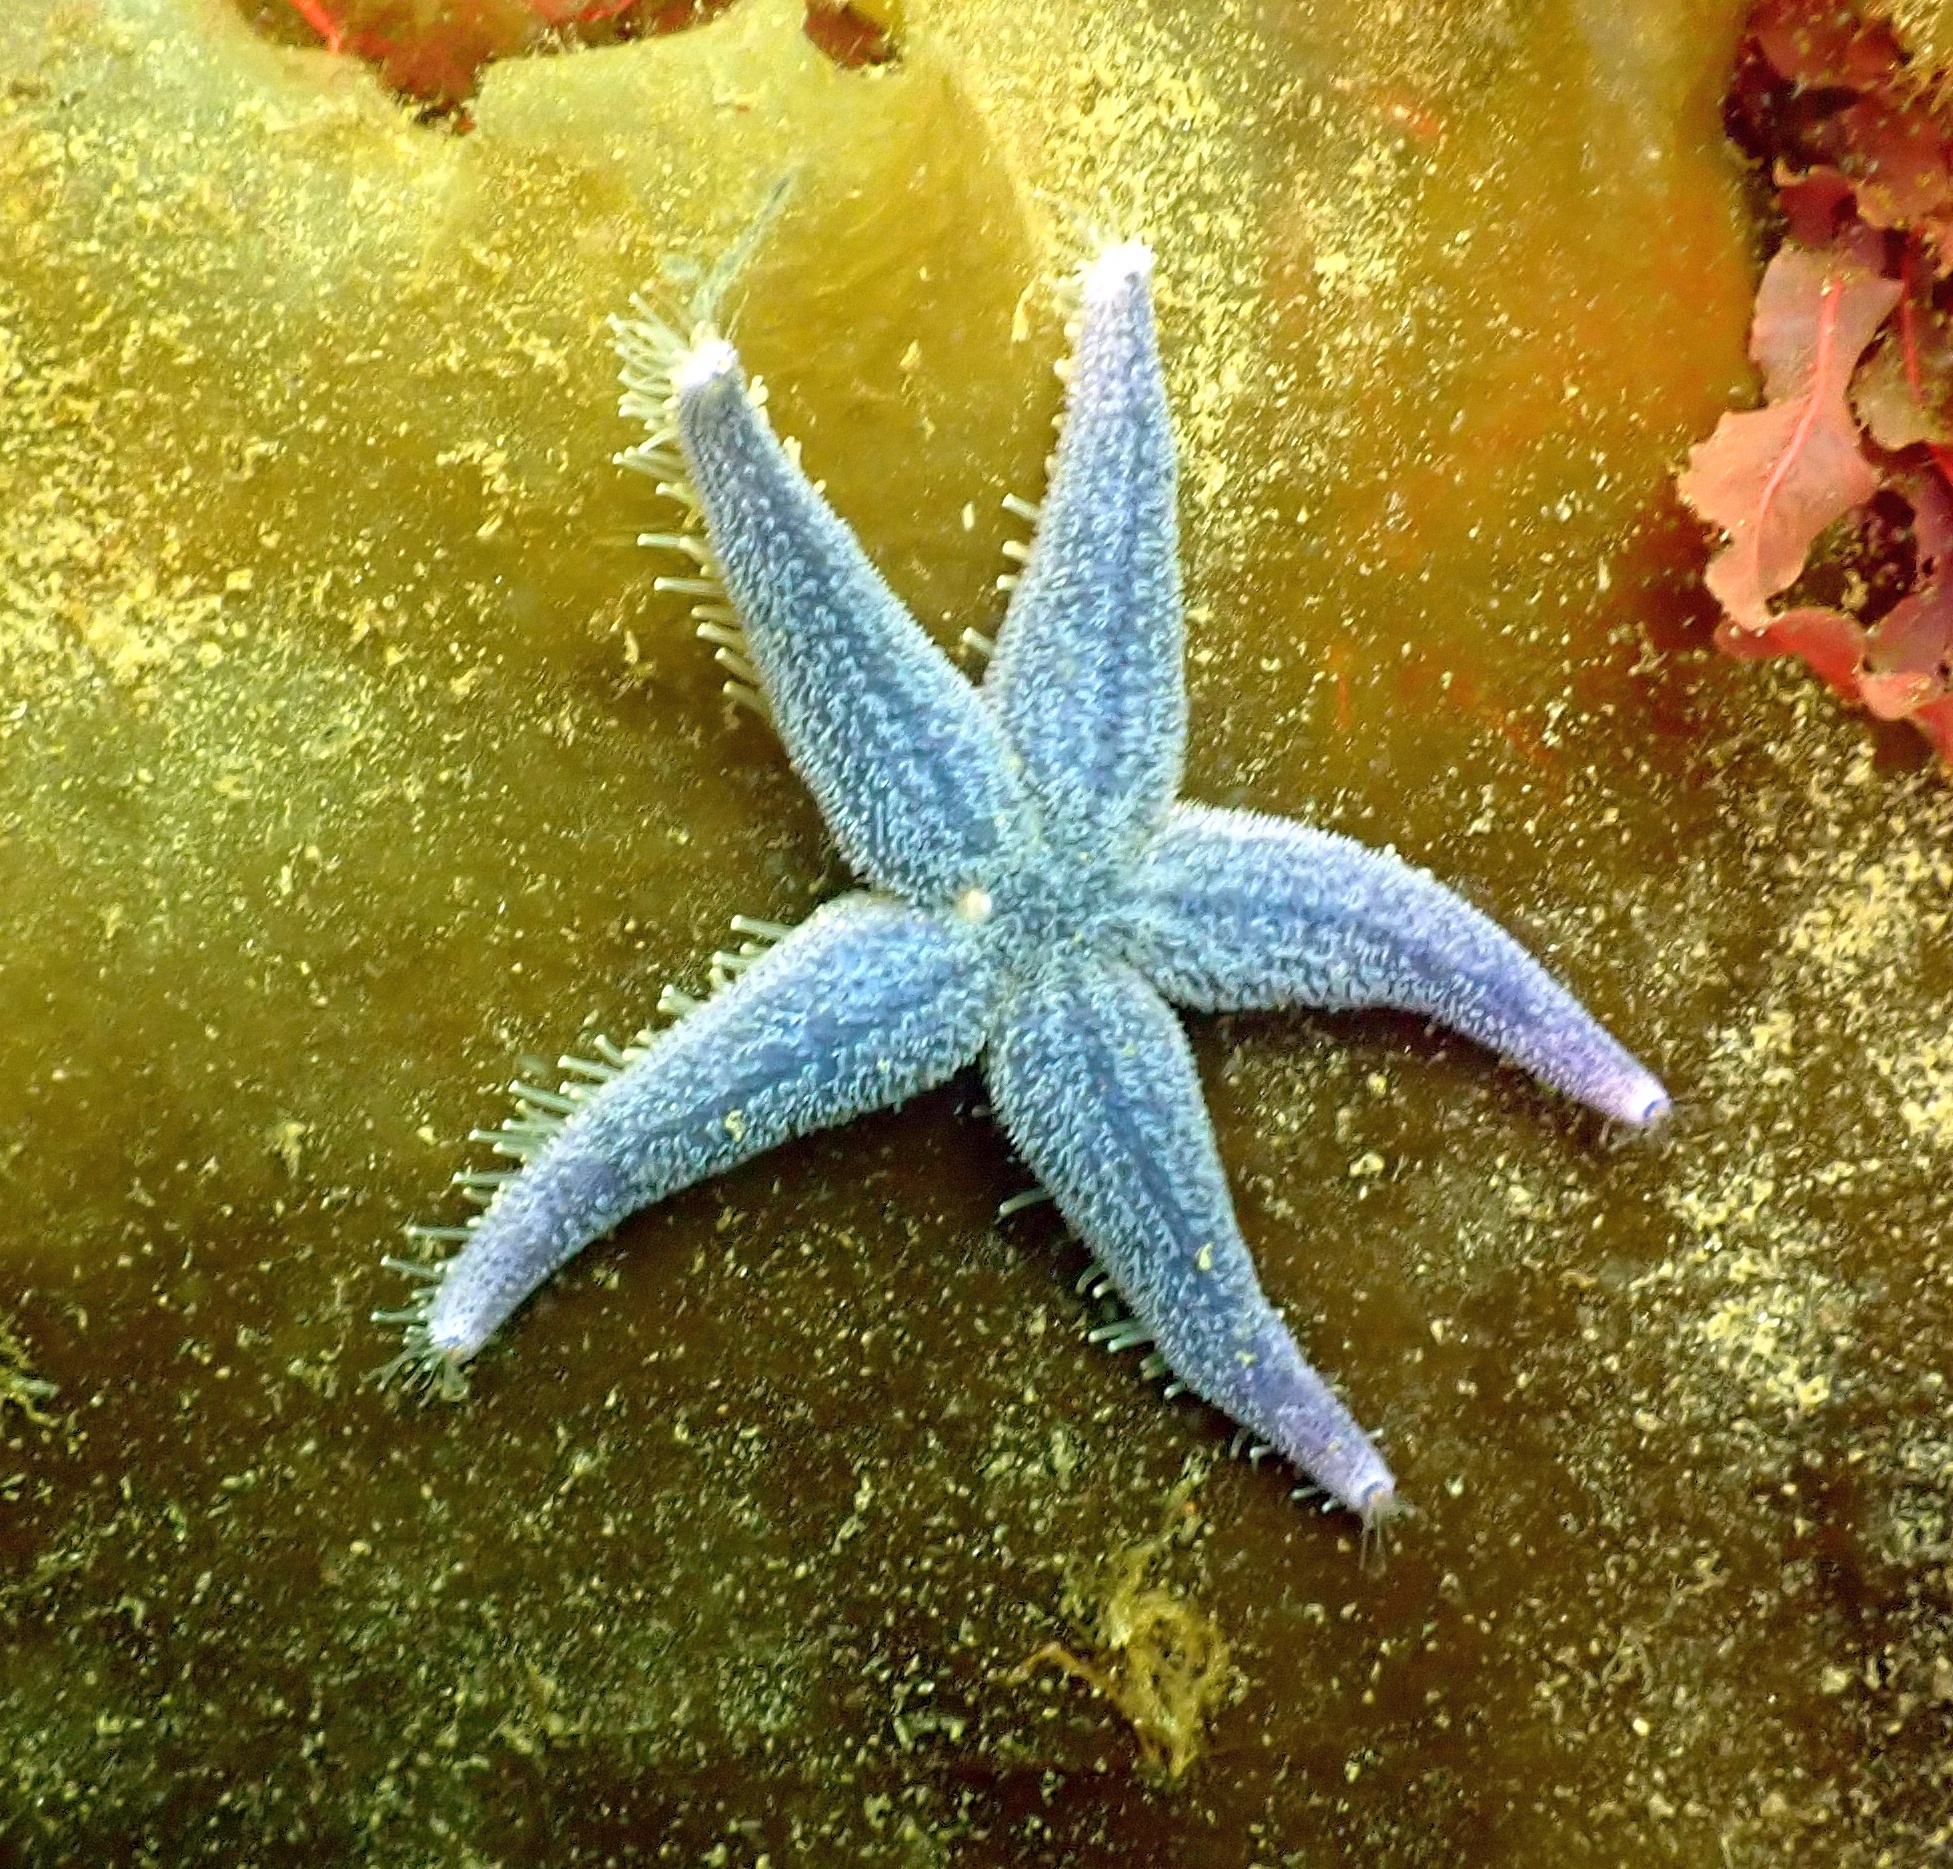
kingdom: Animalia
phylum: Echinodermata
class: Asteroidea
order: Forcipulatida
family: Asteriidae
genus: Asterias
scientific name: Asterias rubens
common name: Common starfish
